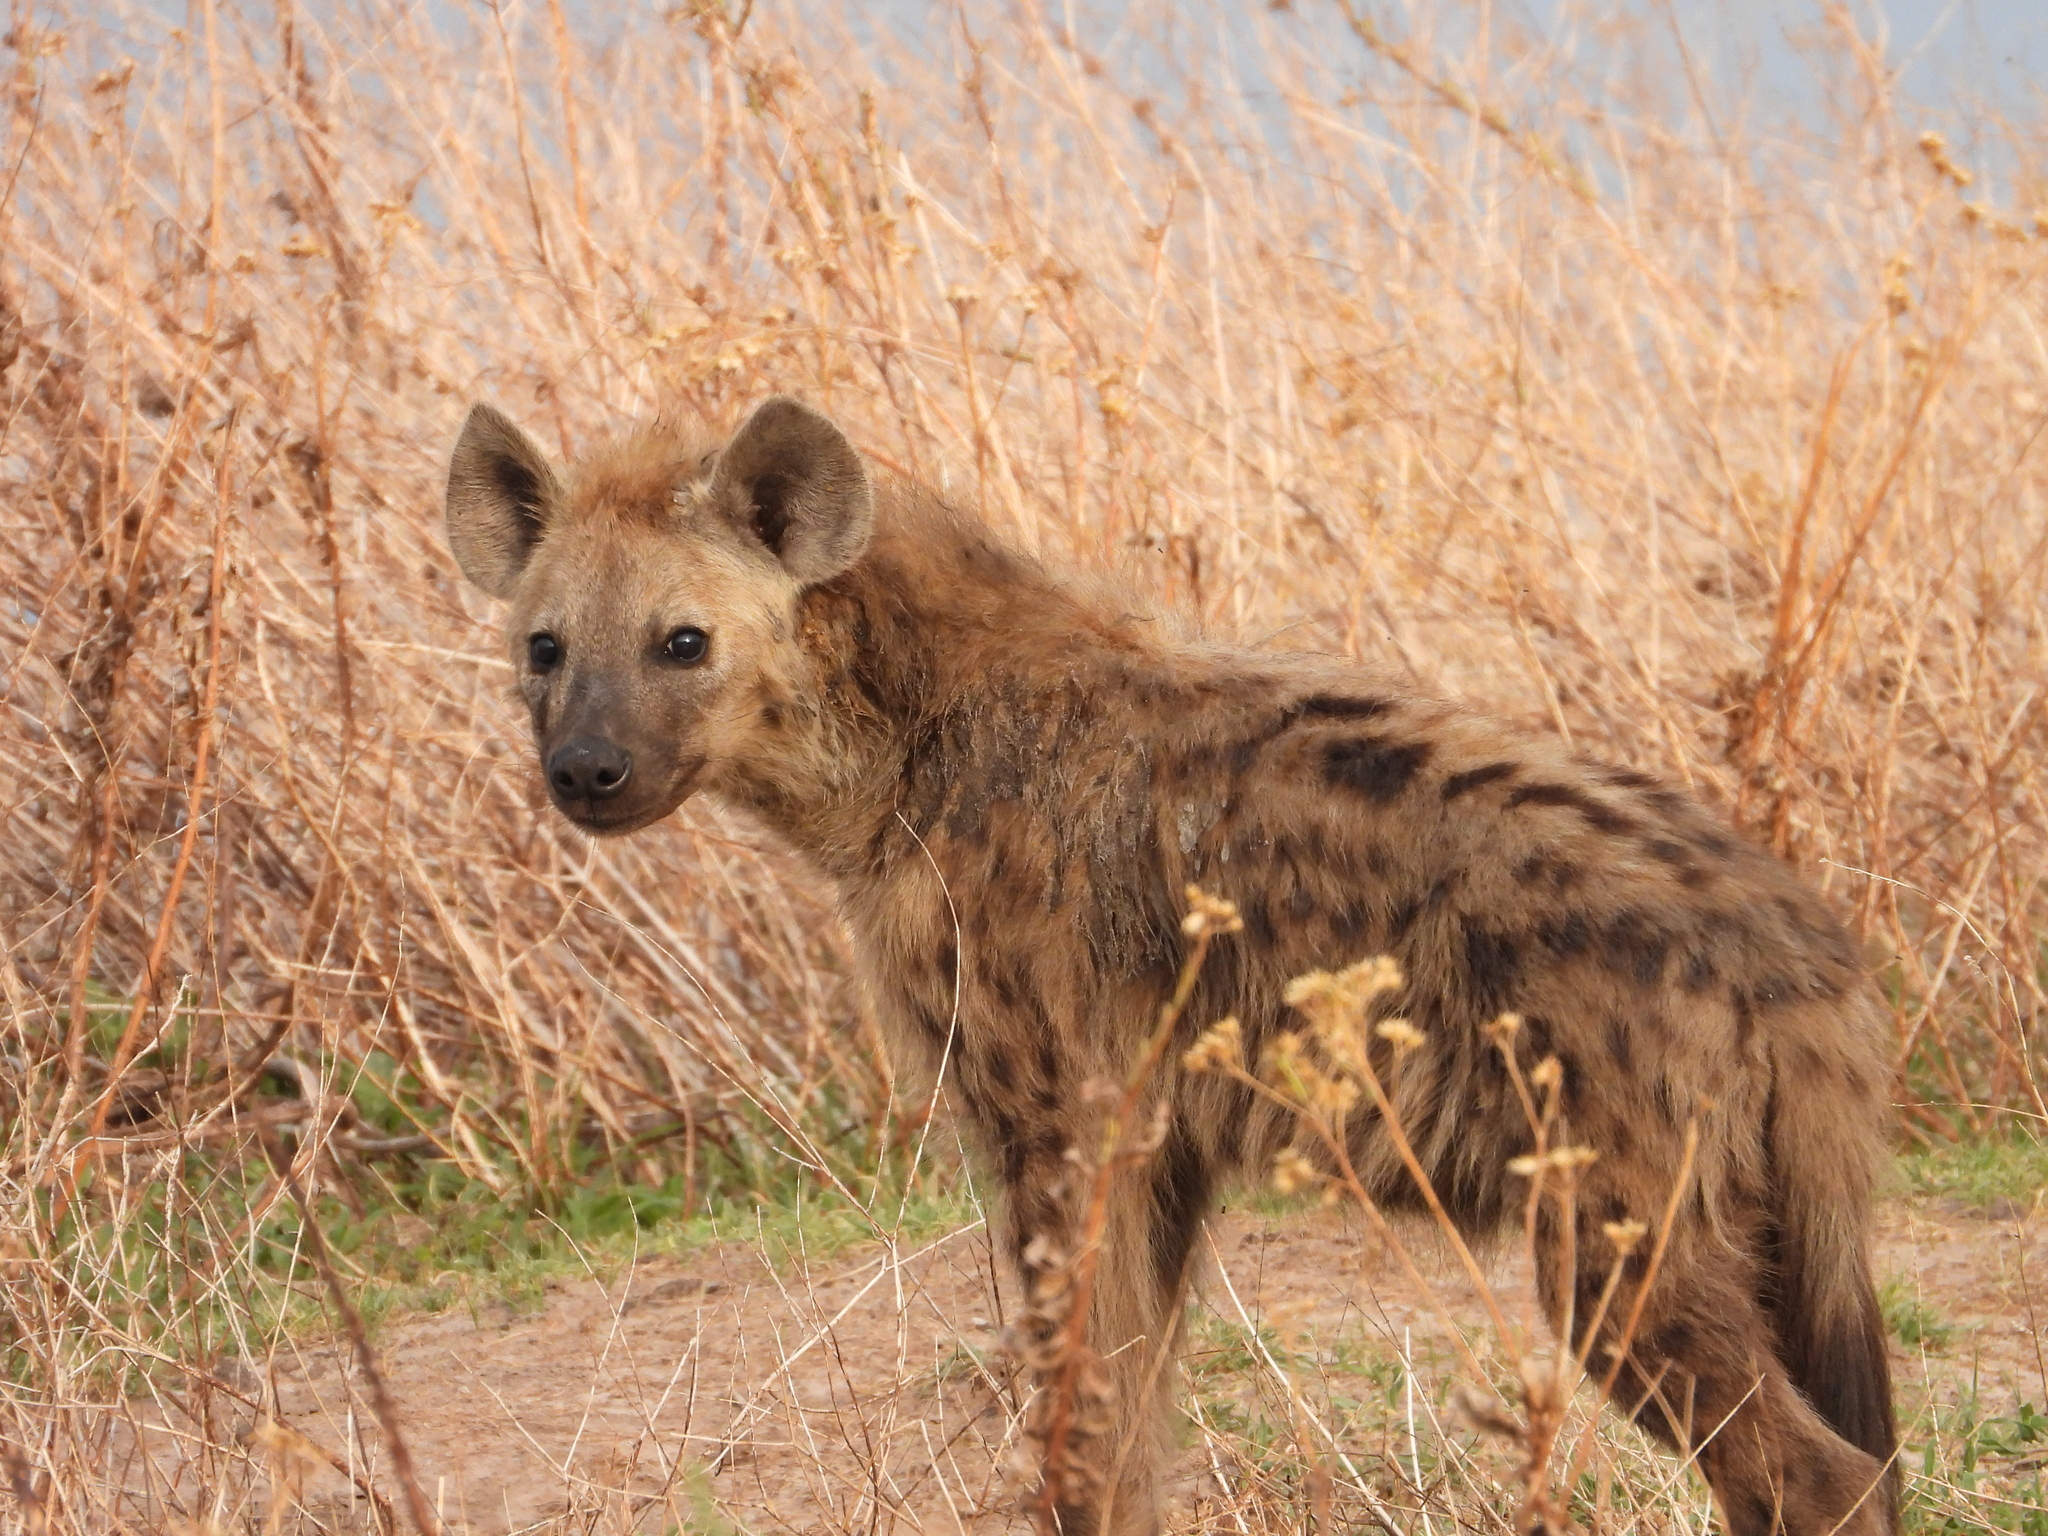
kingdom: Animalia
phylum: Chordata
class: Mammalia
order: Carnivora
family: Hyaenidae
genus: Crocuta
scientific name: Crocuta crocuta
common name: Spotted hyaena
